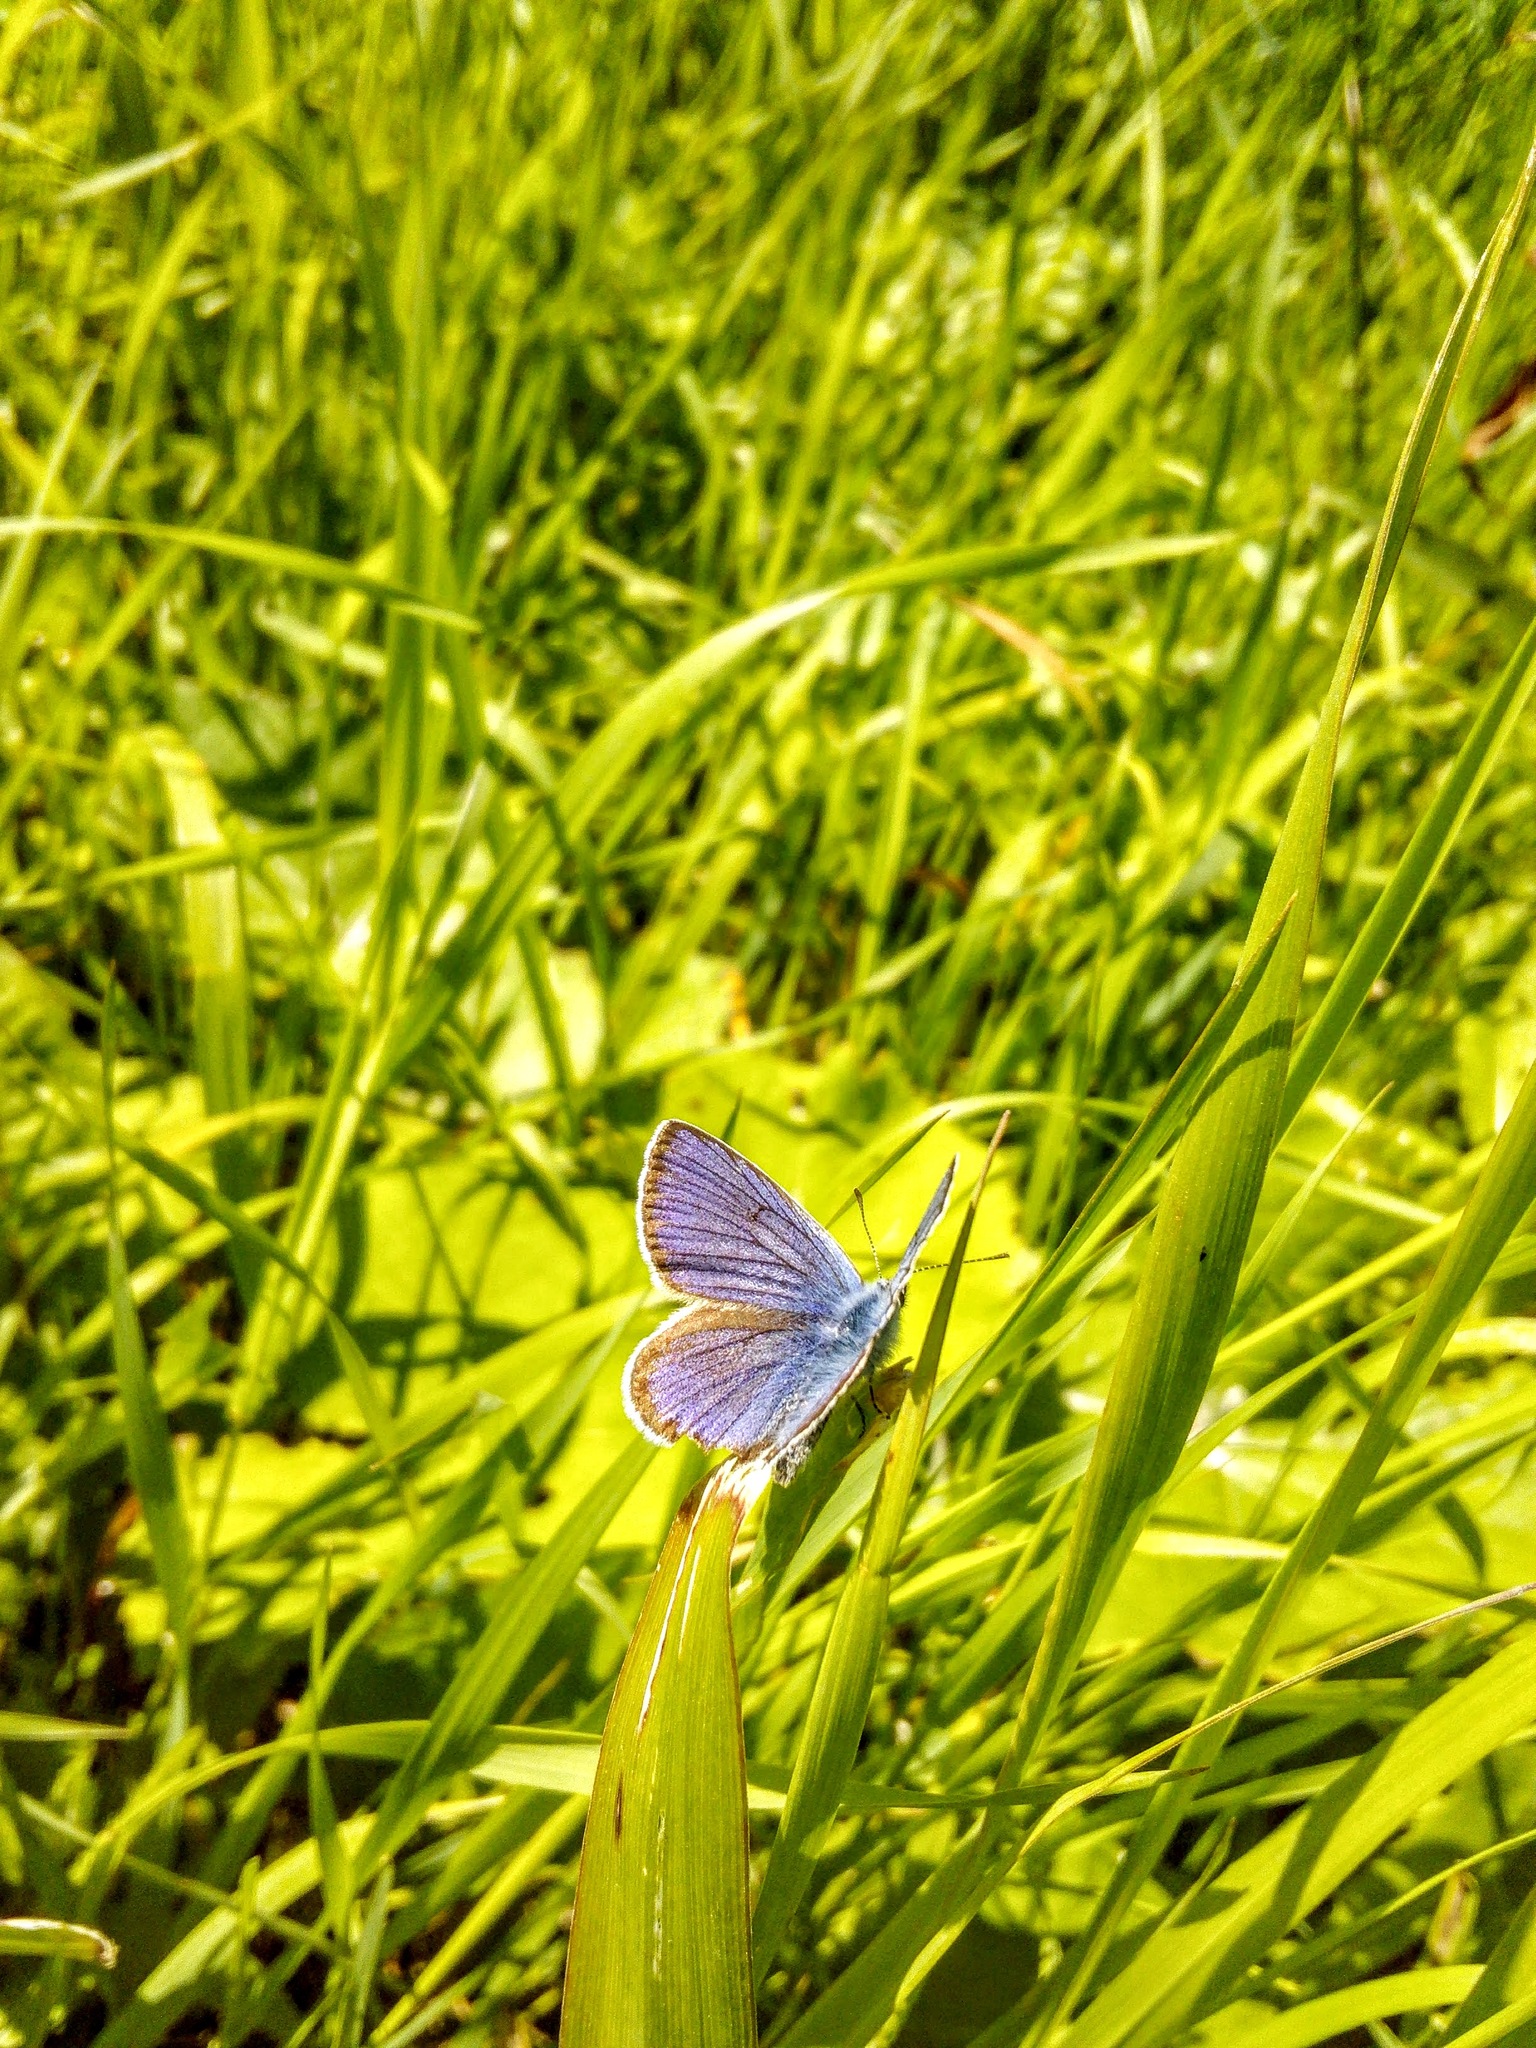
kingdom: Animalia
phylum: Arthropoda
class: Insecta
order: Lepidoptera
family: Lycaenidae
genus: Cyaniris
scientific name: Cyaniris semiargus
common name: Mazarine blue
